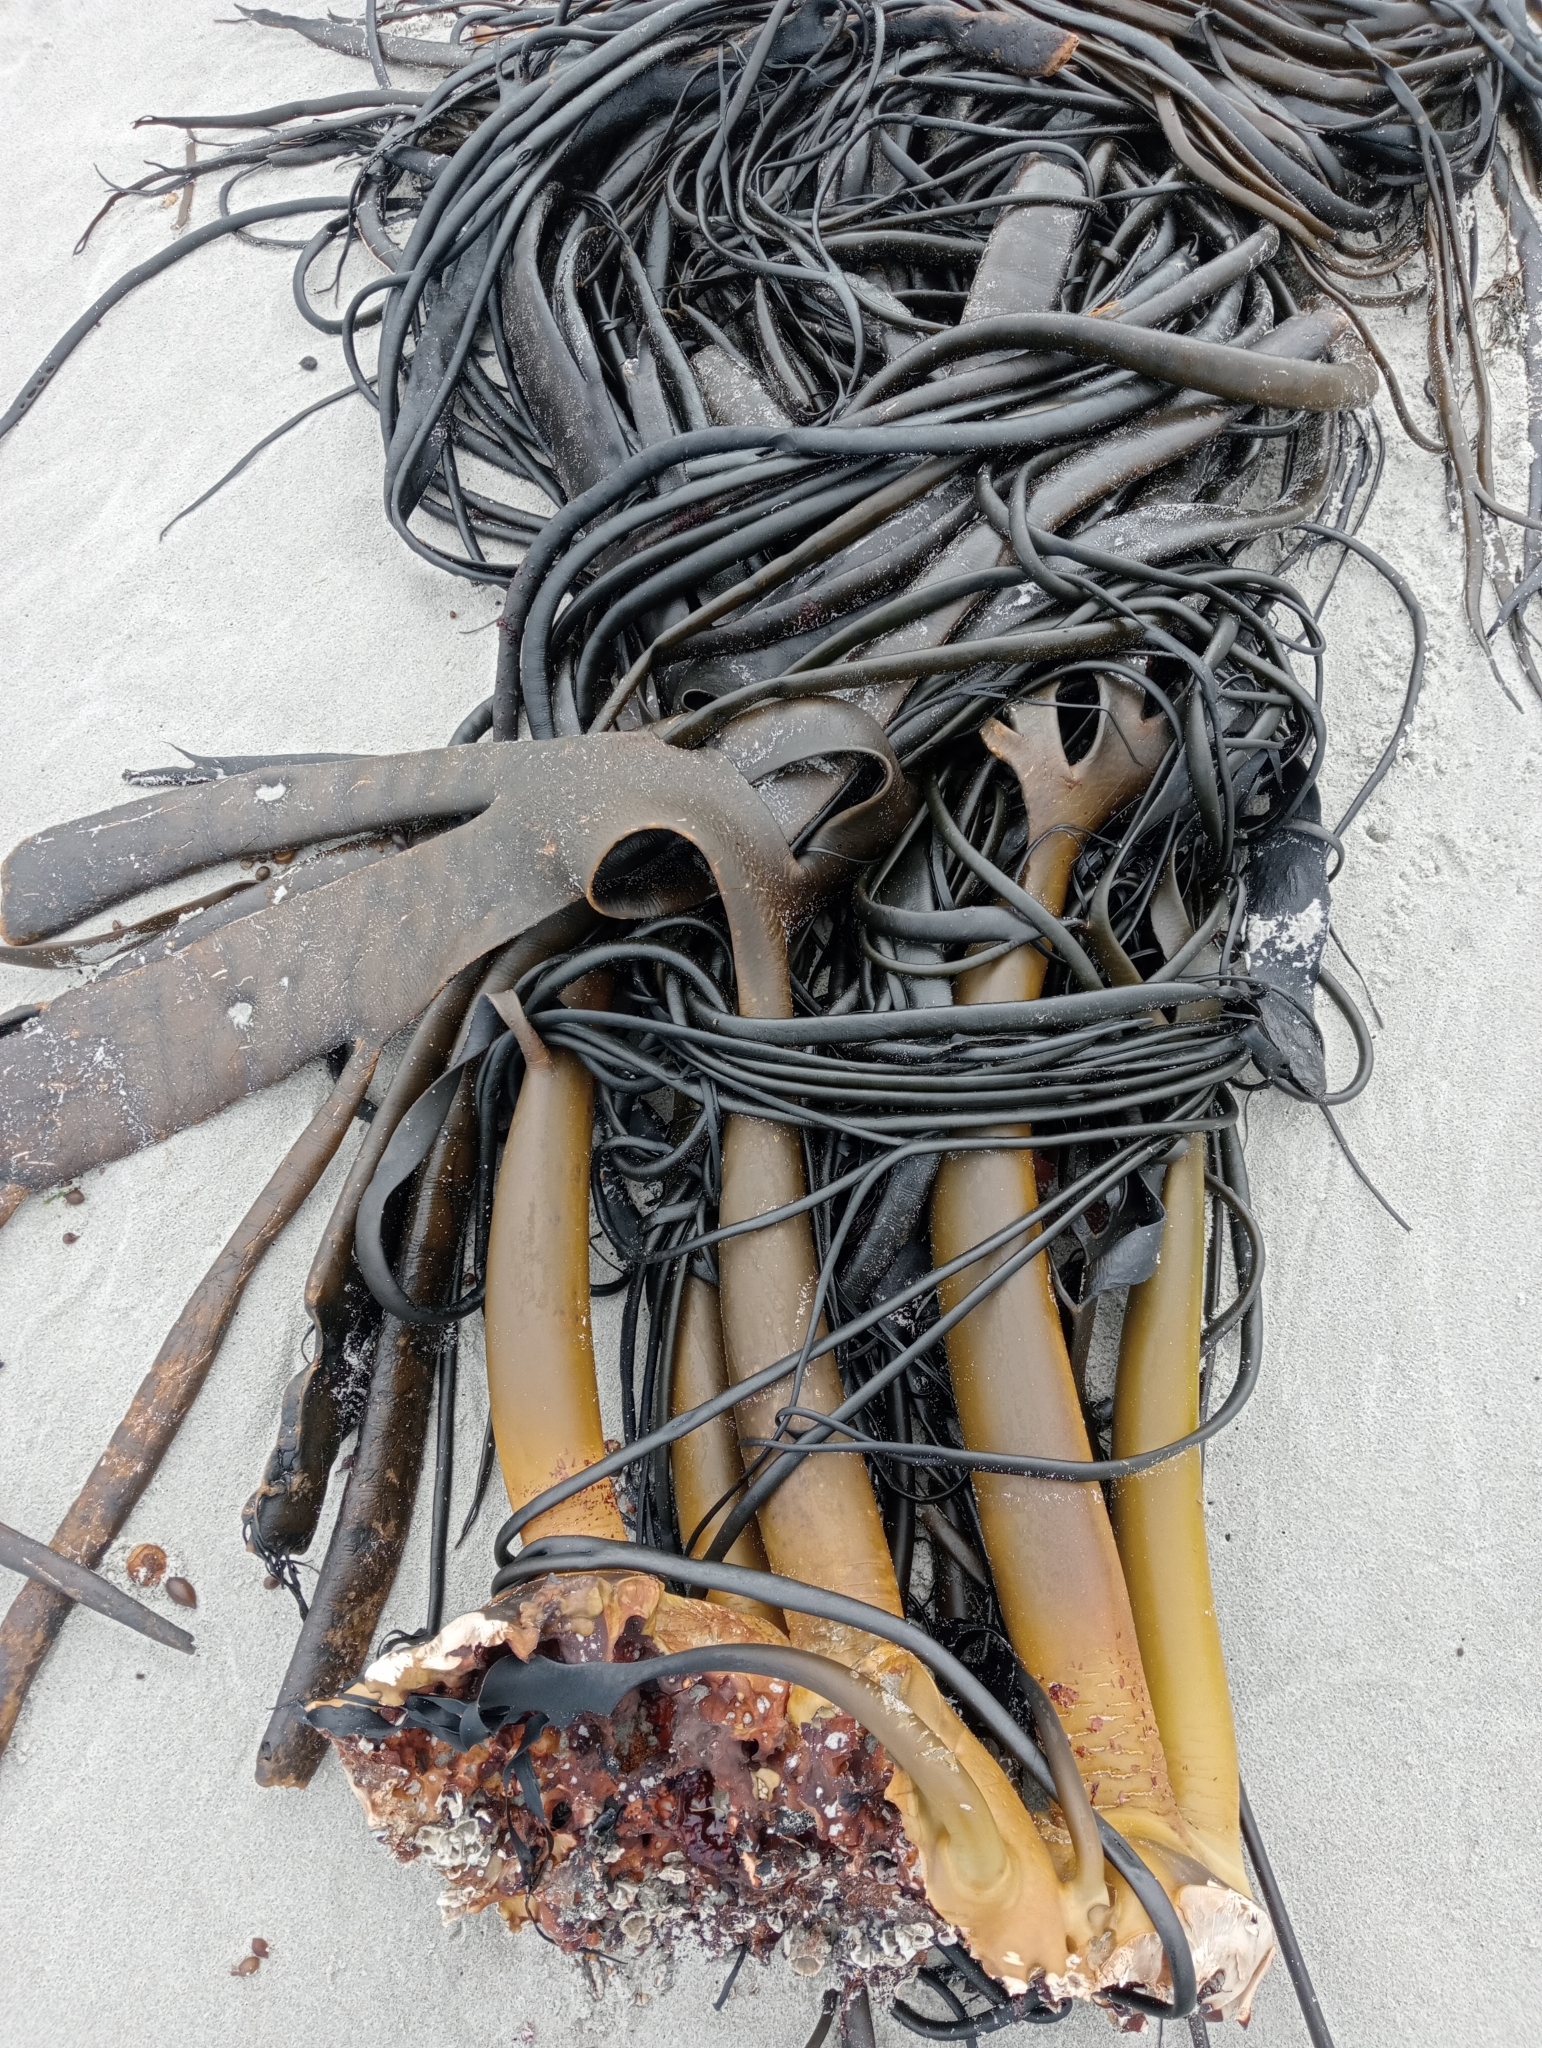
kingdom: Chromista
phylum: Ochrophyta
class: Phaeophyceae
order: Fucales
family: Durvillaeaceae
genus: Durvillaea
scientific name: Durvillaea antarctica
